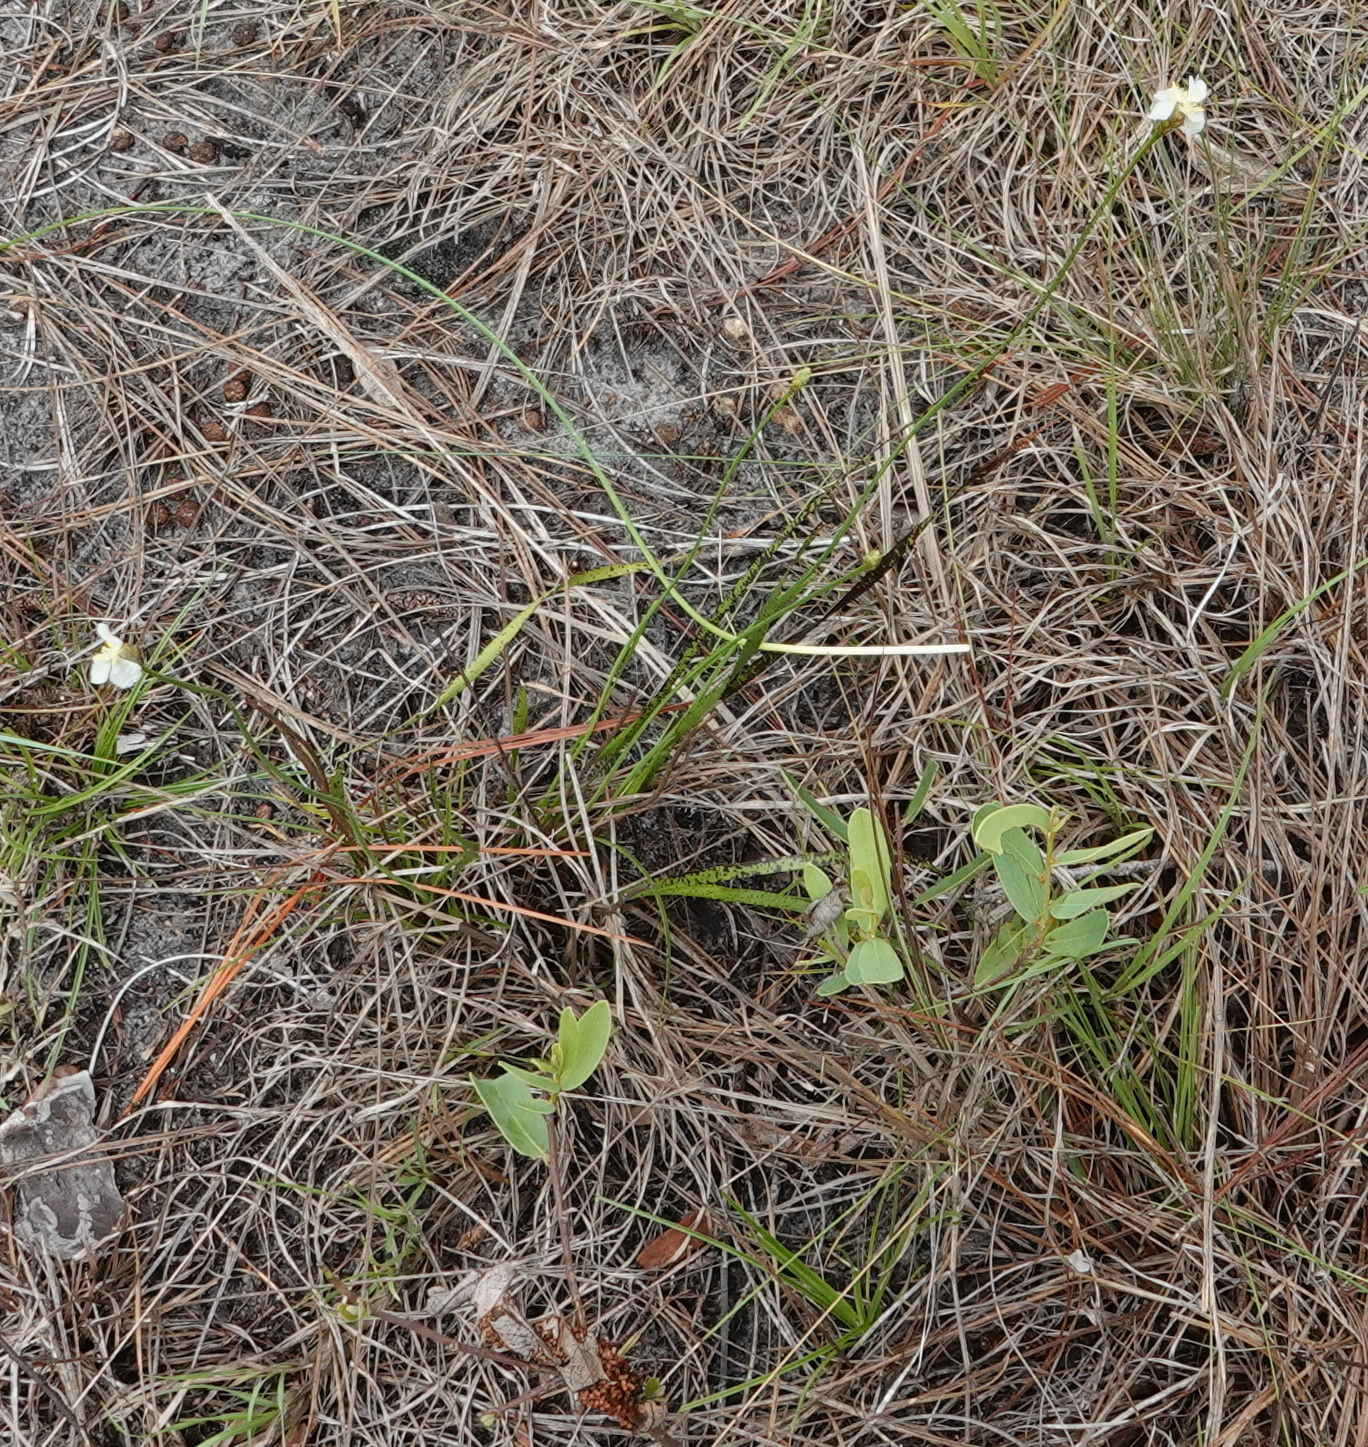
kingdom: Plantae
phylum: Tracheophyta
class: Liliopsida
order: Poales
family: Xyridaceae
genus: Xyris
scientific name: Xyris caroliniana
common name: Carolina yellow-eyed-grass
